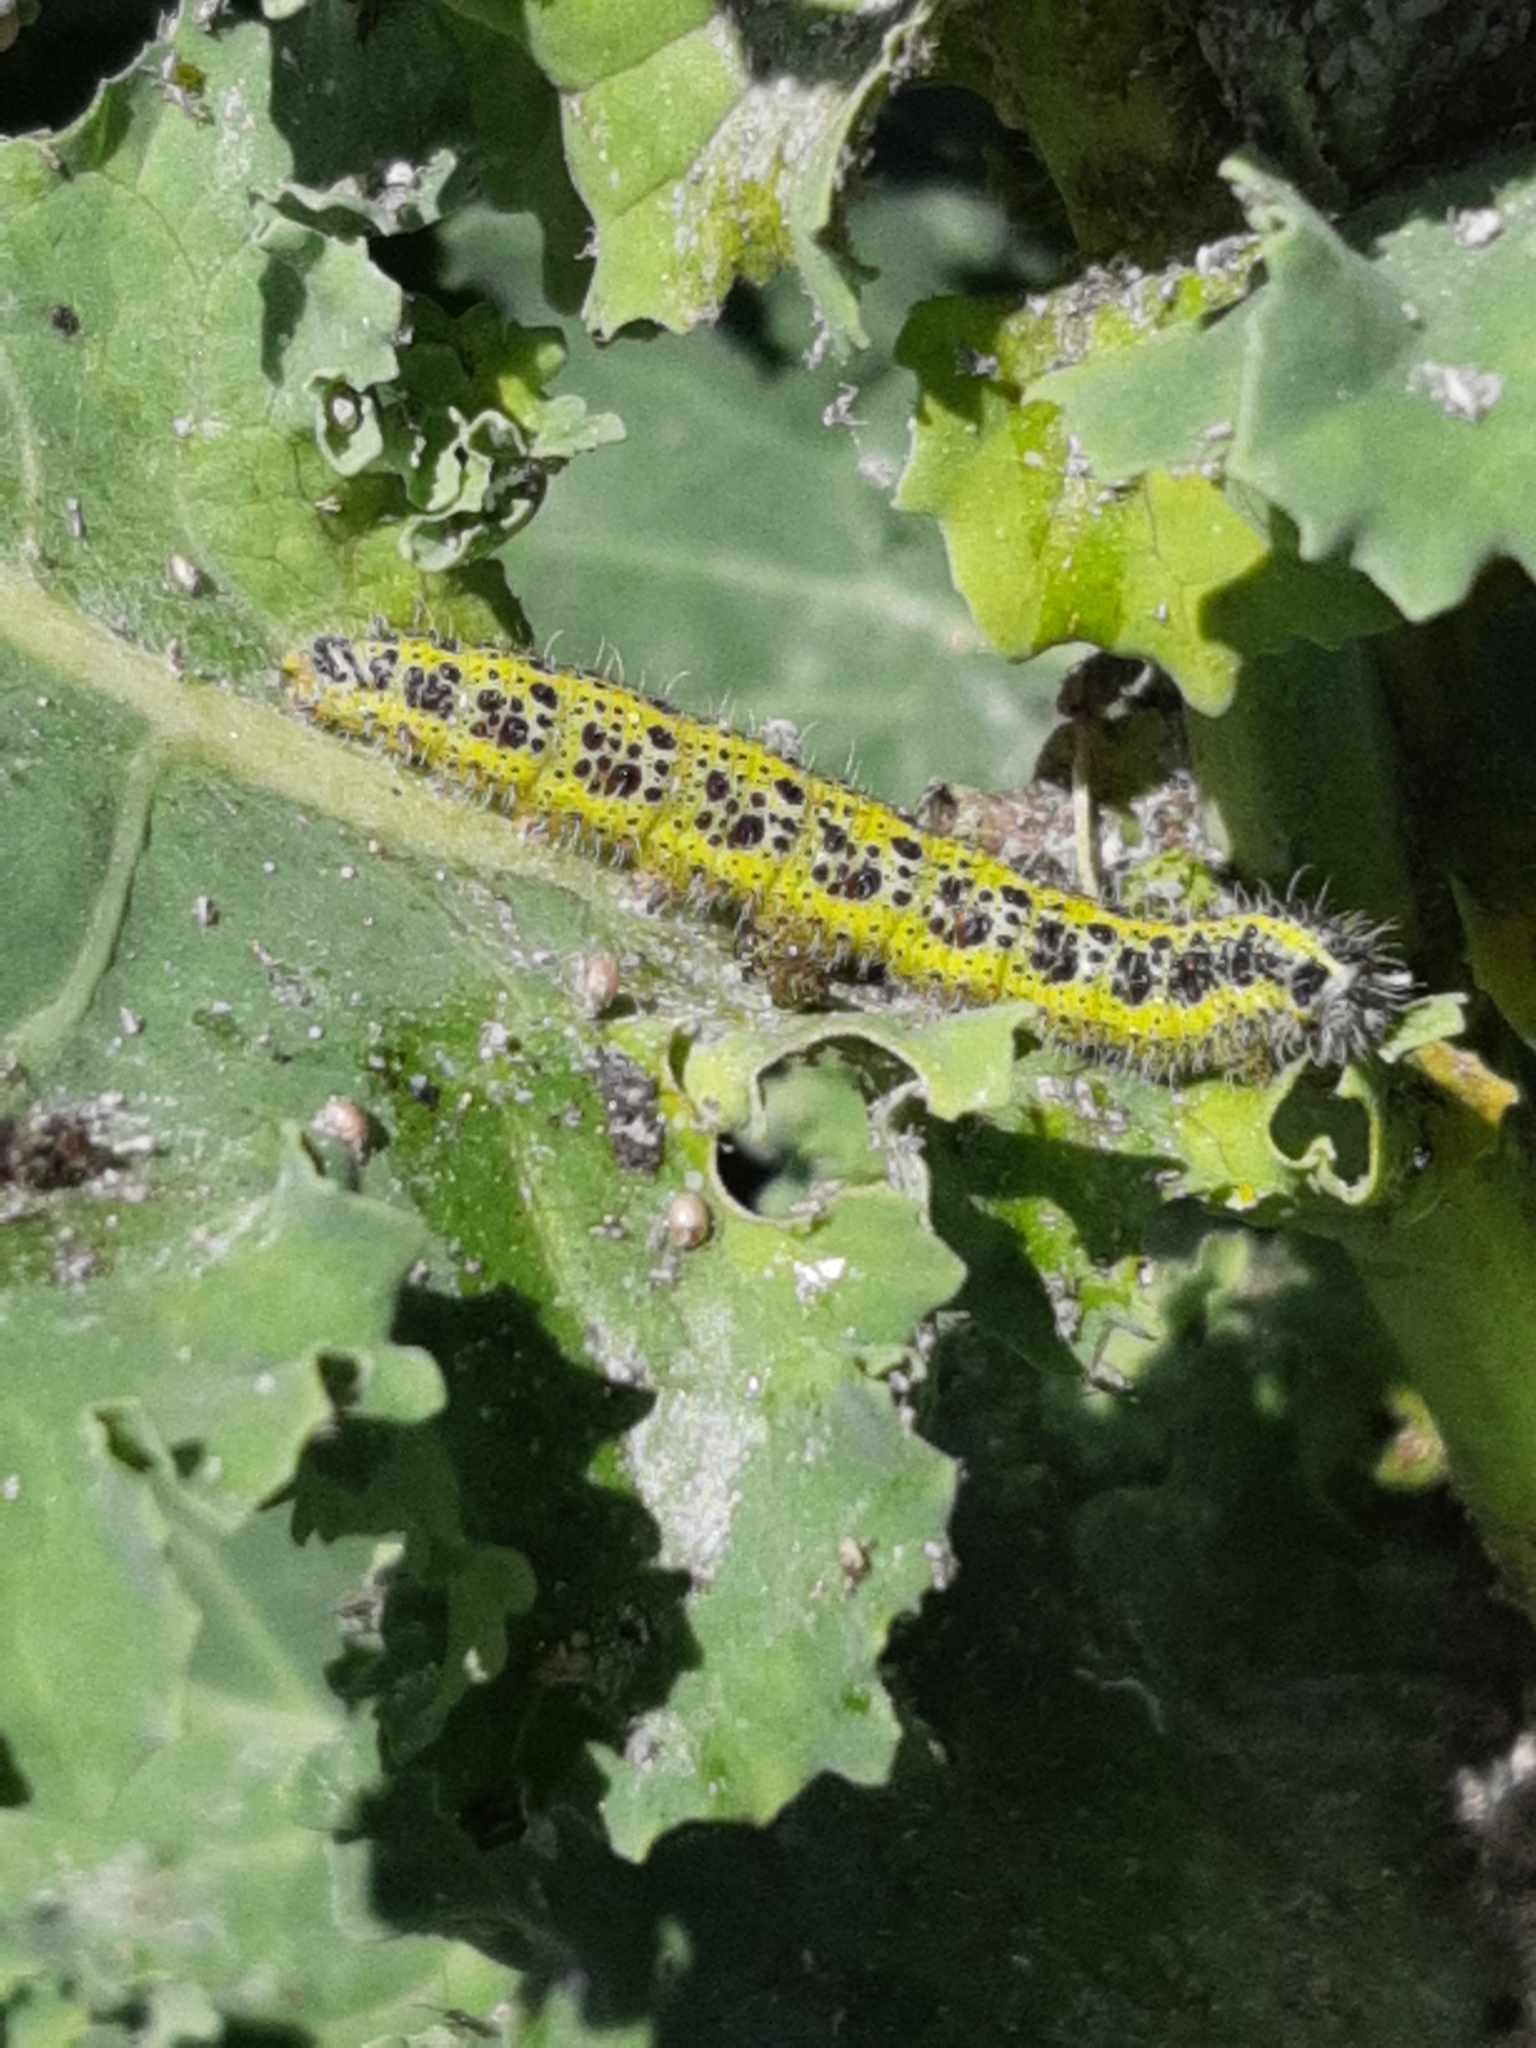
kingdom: Animalia
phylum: Arthropoda
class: Insecta
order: Lepidoptera
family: Pieridae
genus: Pieris
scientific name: Pieris brassicae
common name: Large white
